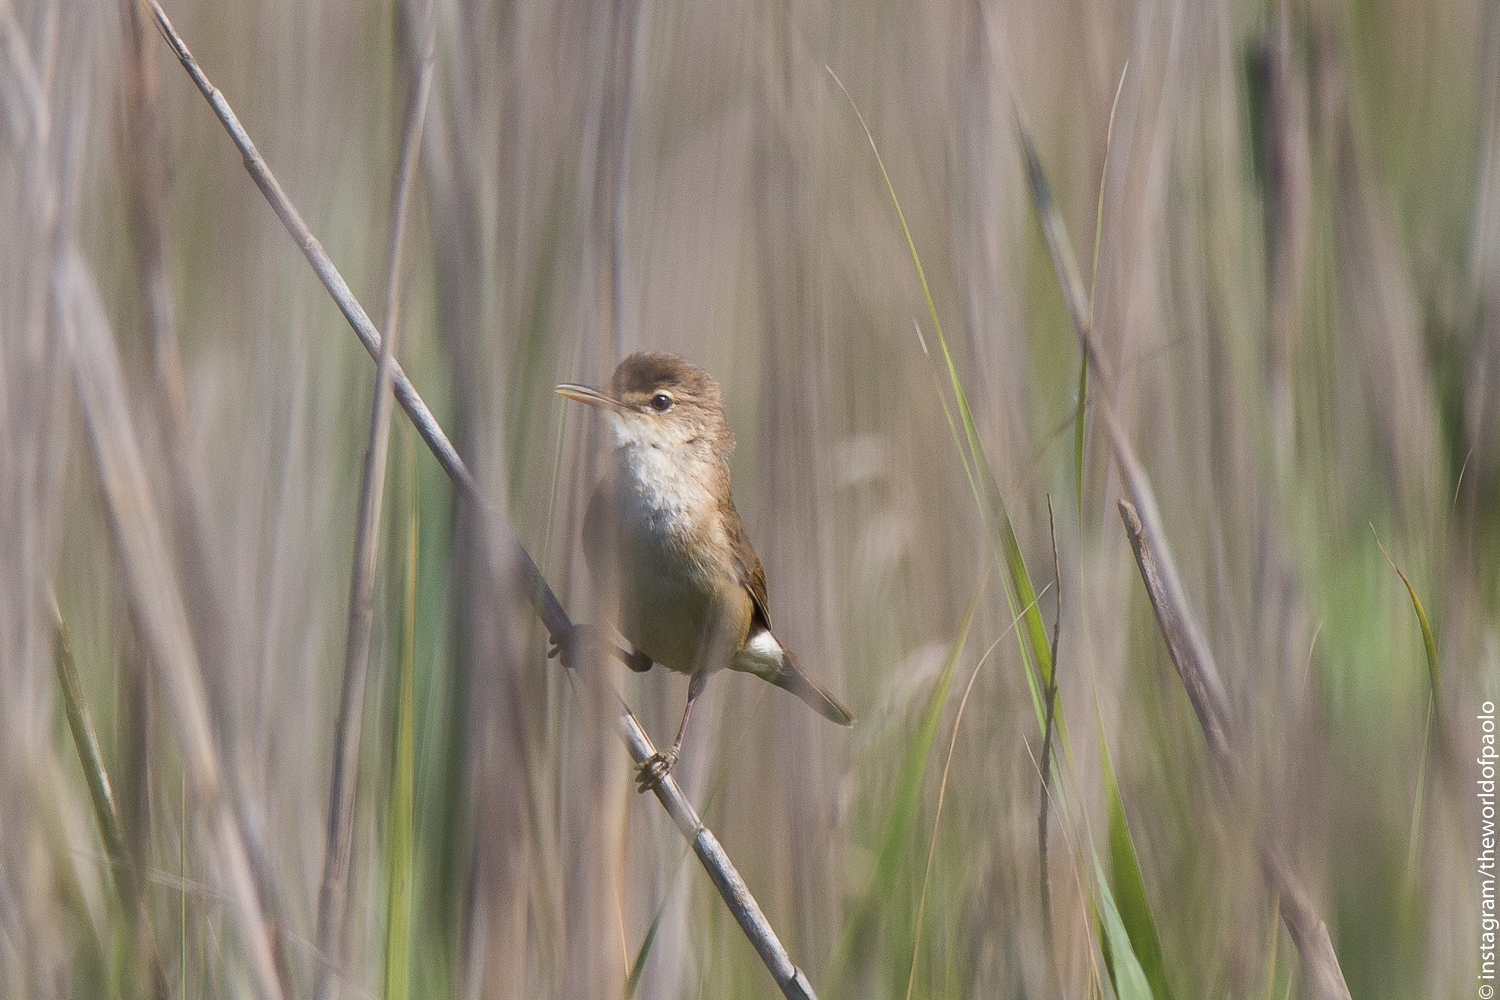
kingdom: Animalia
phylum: Chordata
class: Aves
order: Passeriformes
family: Acrocephalidae
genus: Acrocephalus
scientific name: Acrocephalus scirpaceus
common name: Eurasian reed warbler
